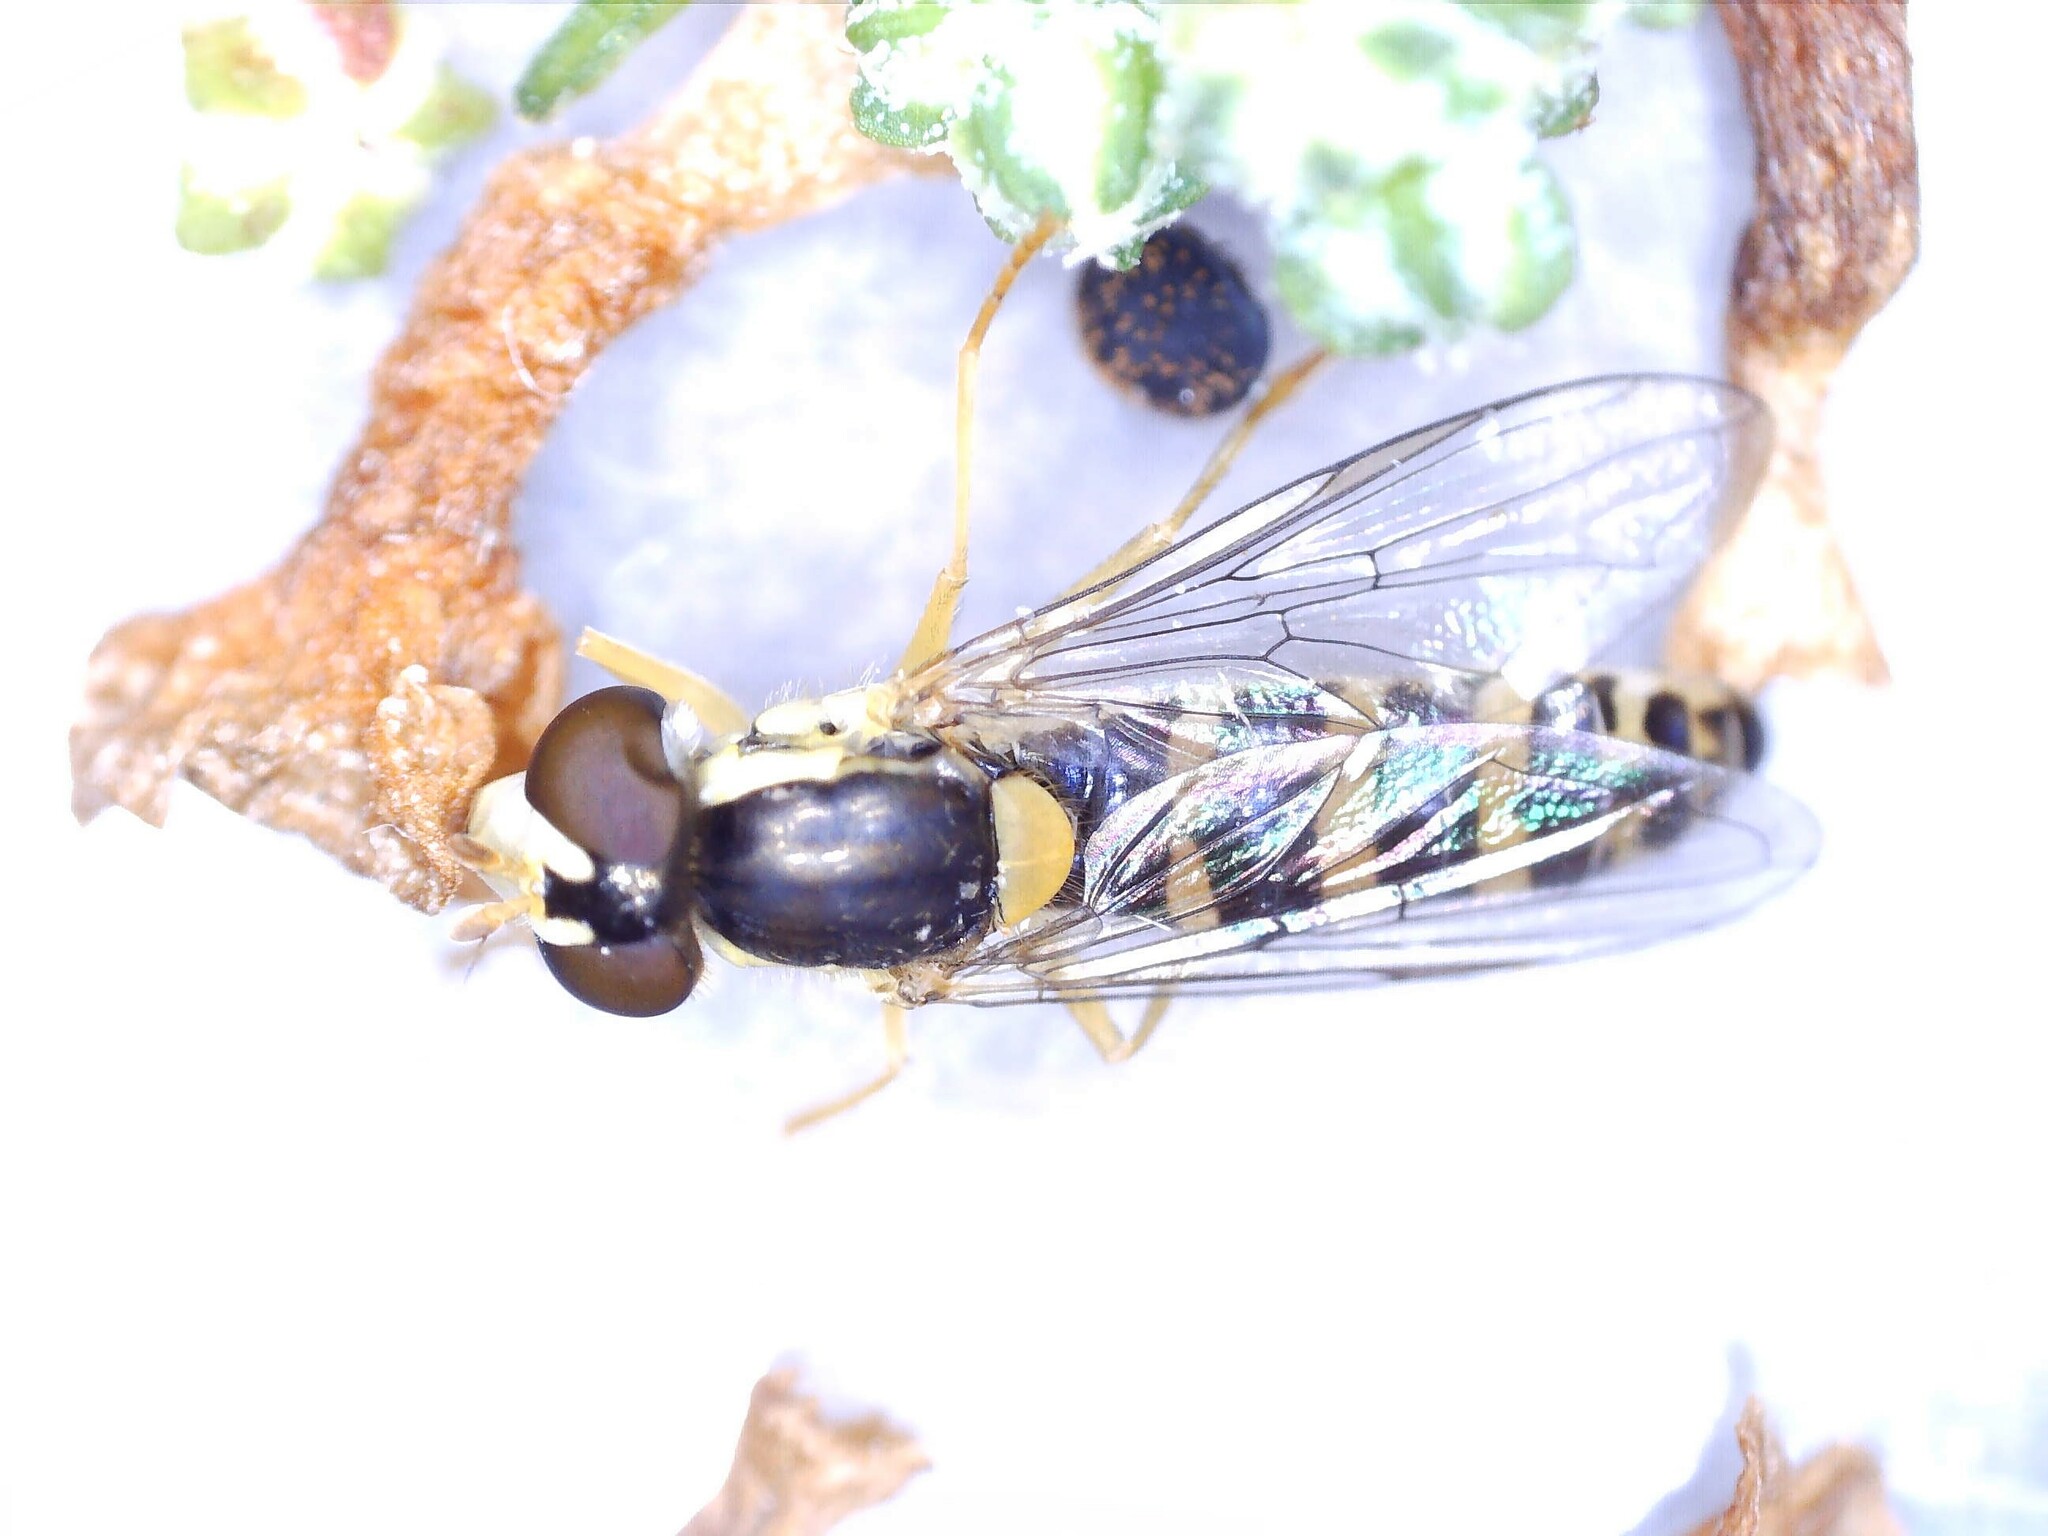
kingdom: Animalia
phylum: Arthropoda
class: Insecta
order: Diptera
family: Syrphidae
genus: Sphaerophoria
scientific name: Sphaerophoria
